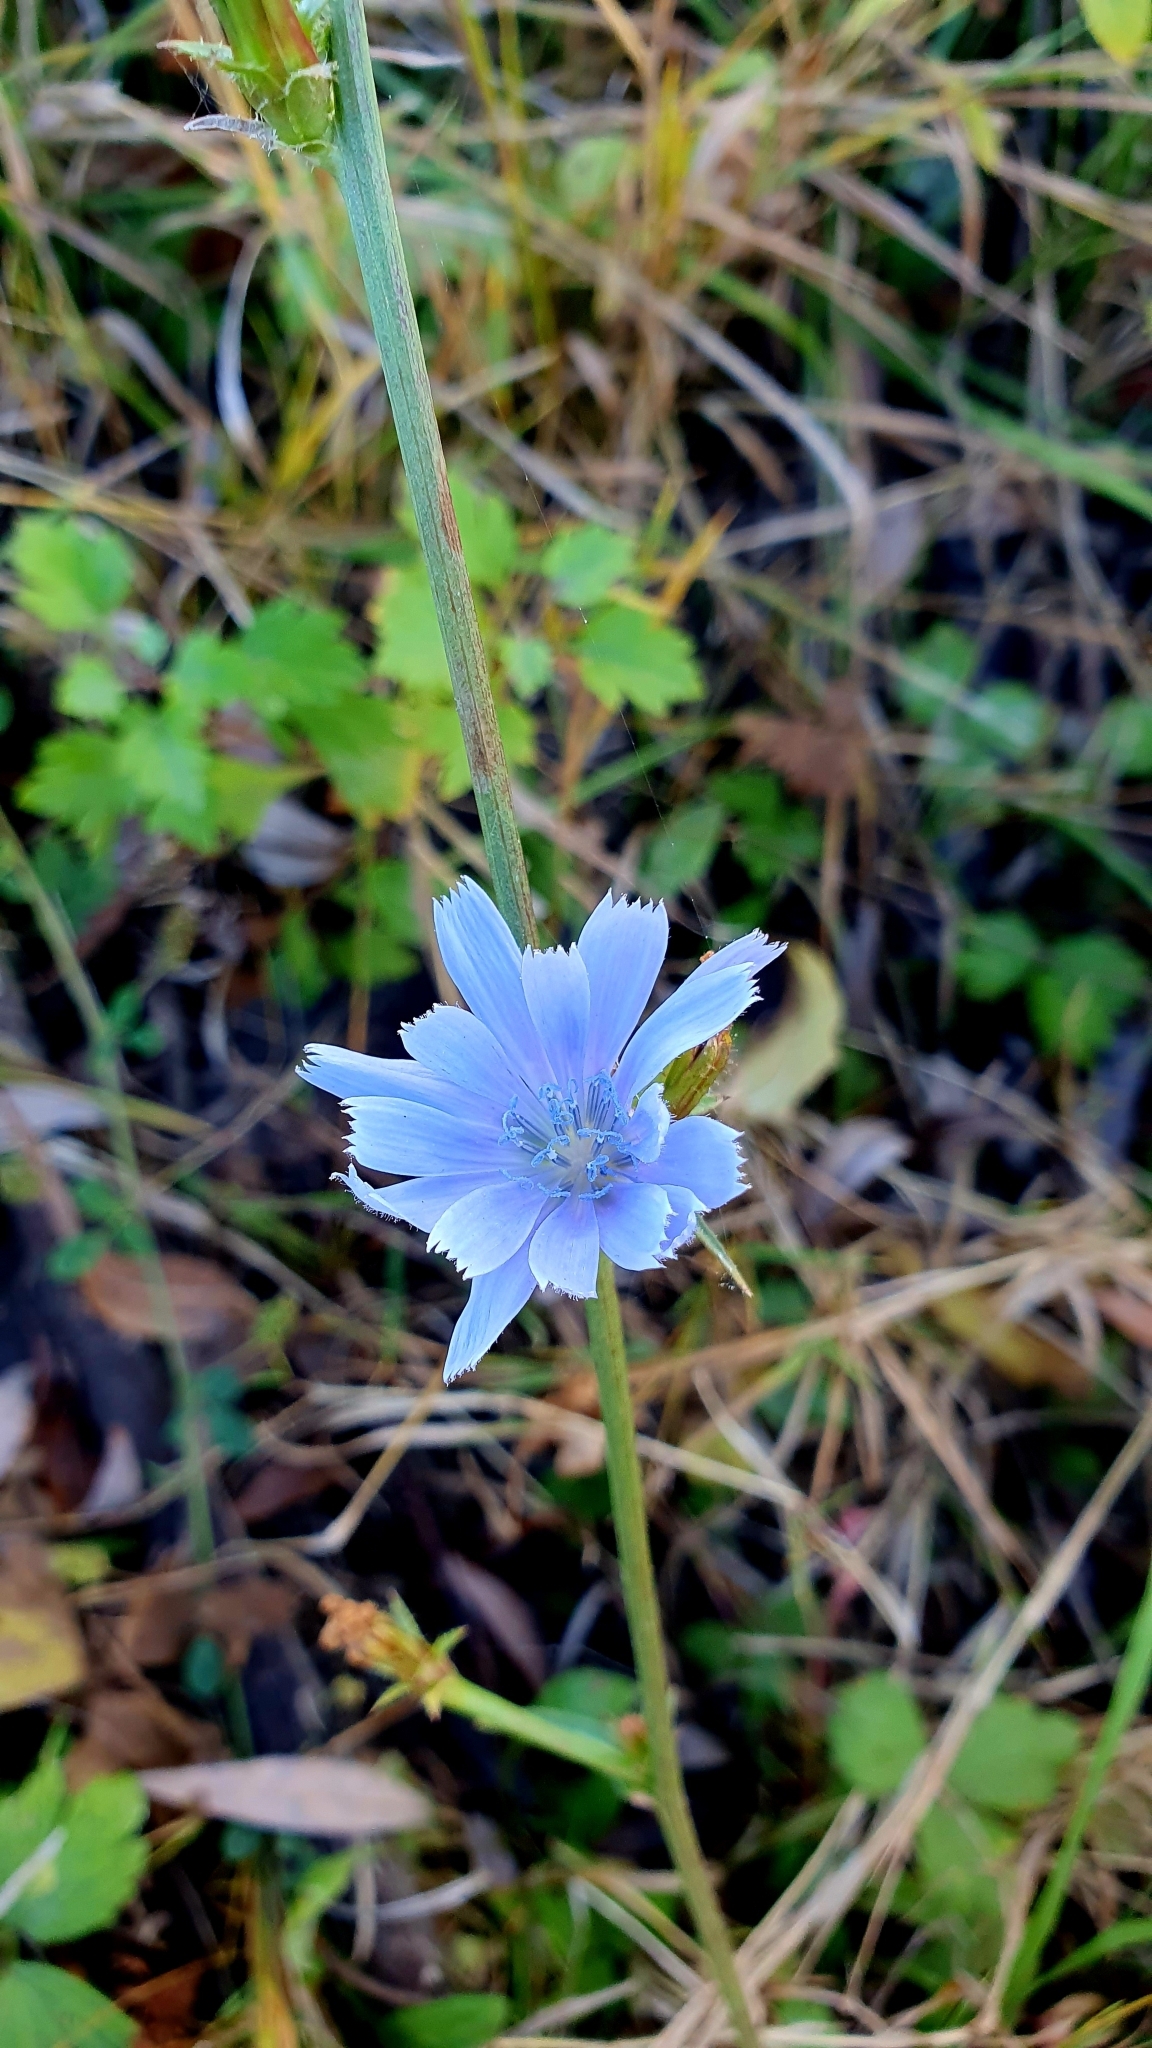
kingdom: Plantae
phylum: Tracheophyta
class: Magnoliopsida
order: Asterales
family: Asteraceae
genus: Cichorium
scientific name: Cichorium intybus
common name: Chicory
